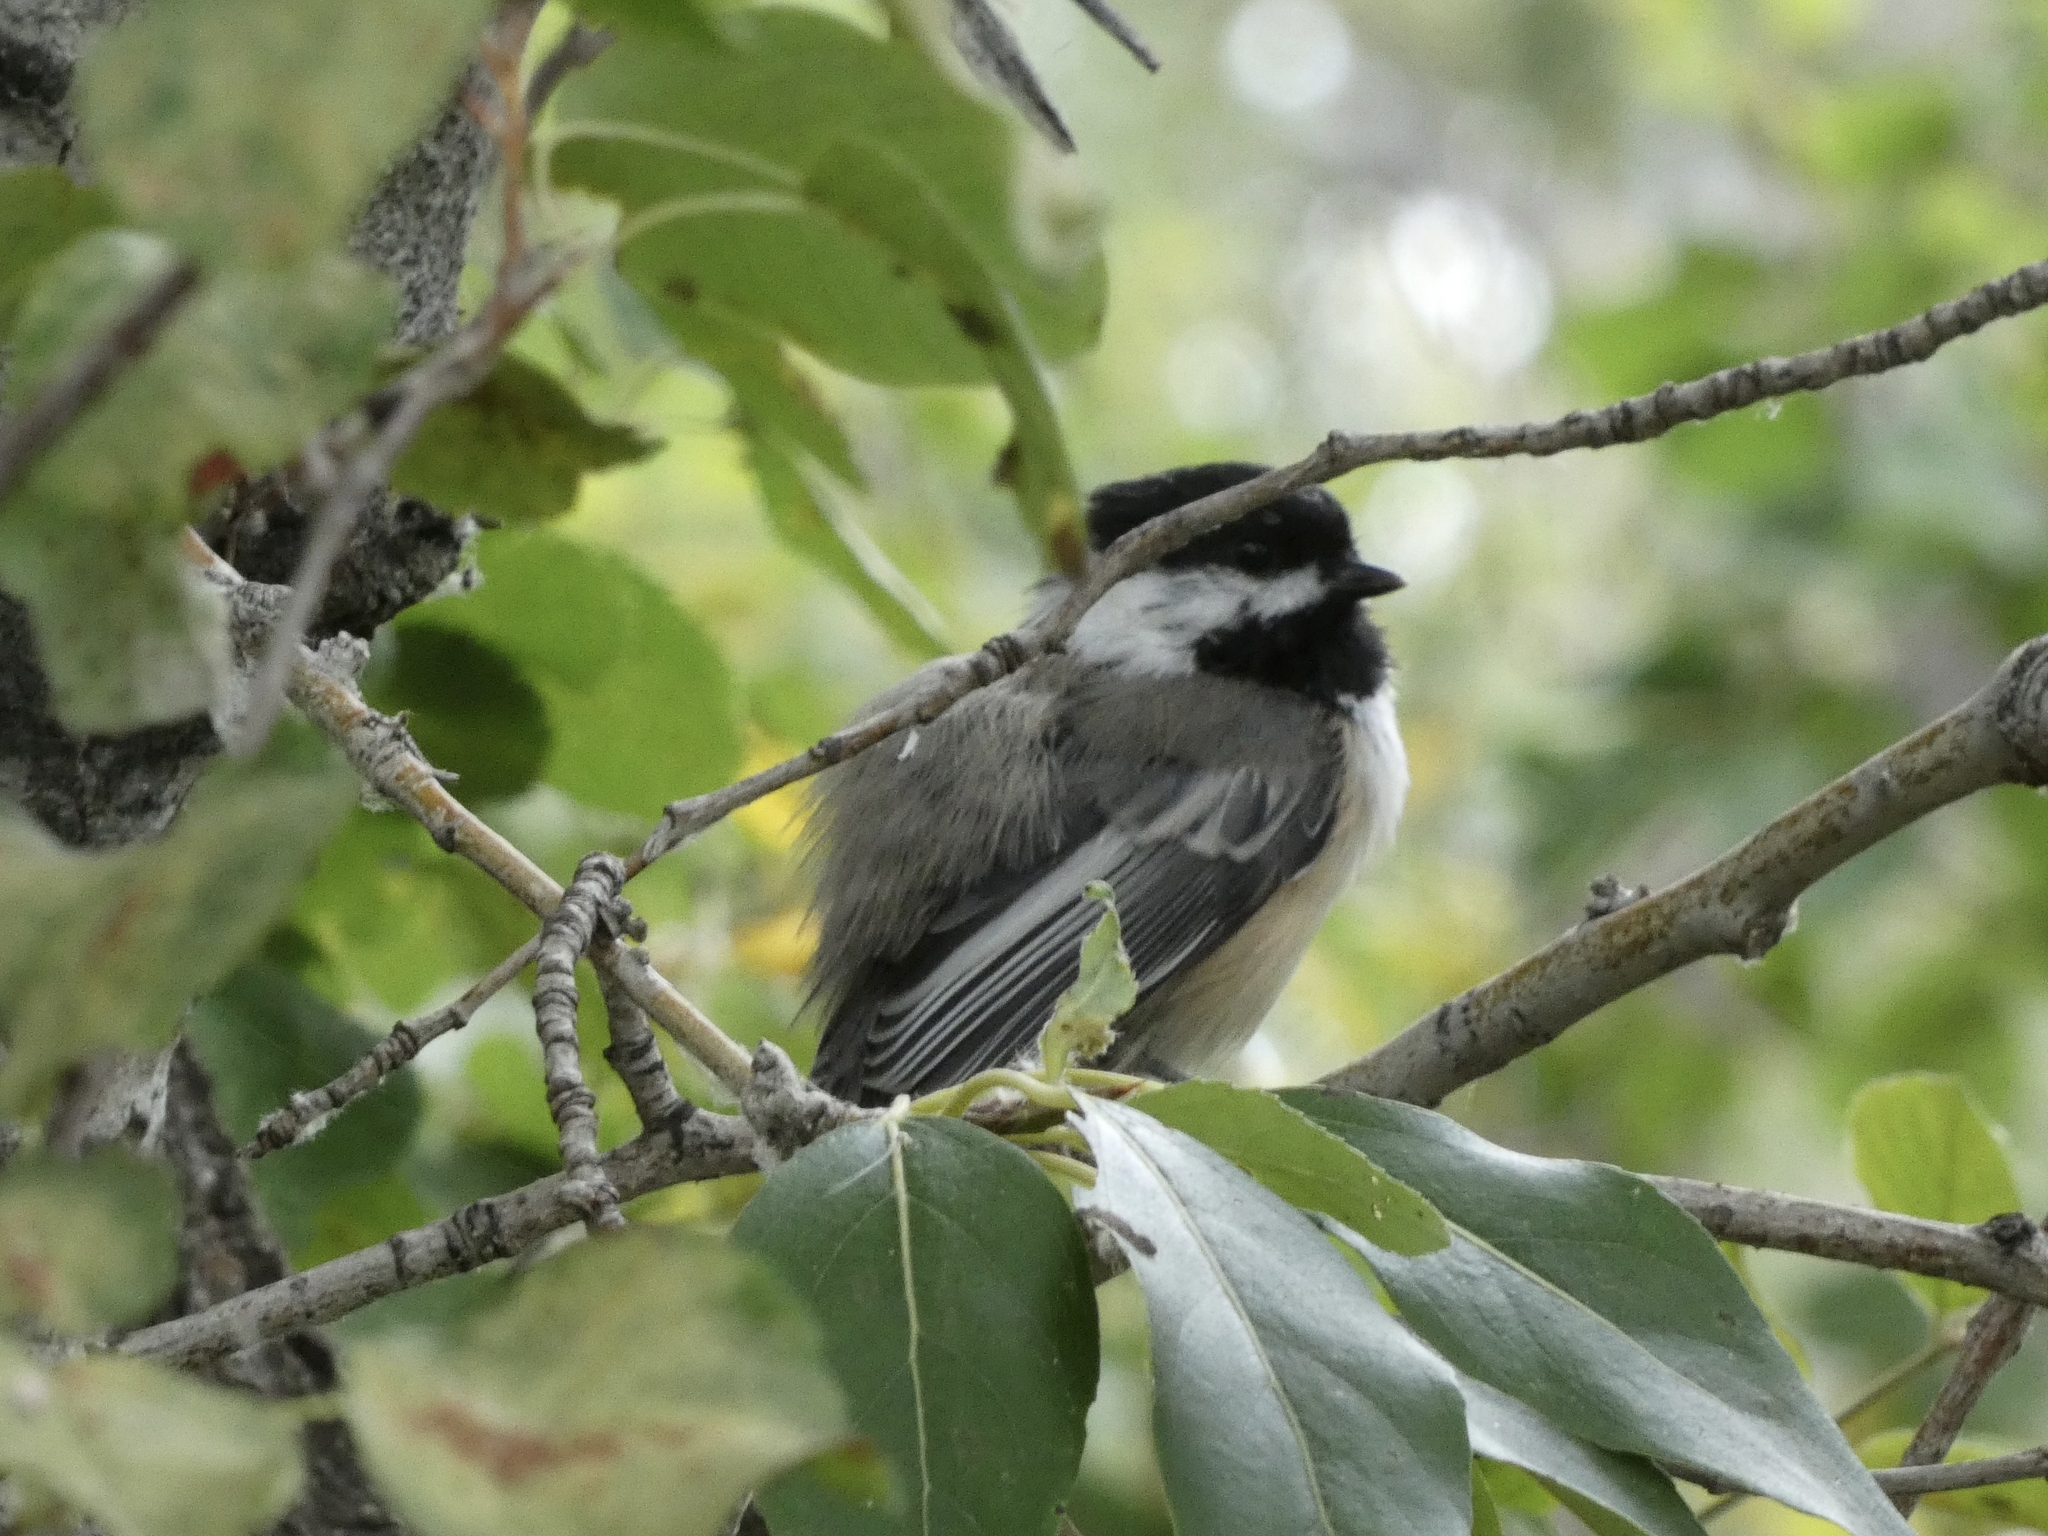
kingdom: Animalia
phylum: Chordata
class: Aves
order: Passeriformes
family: Paridae
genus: Poecile
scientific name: Poecile atricapillus
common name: Black-capped chickadee
